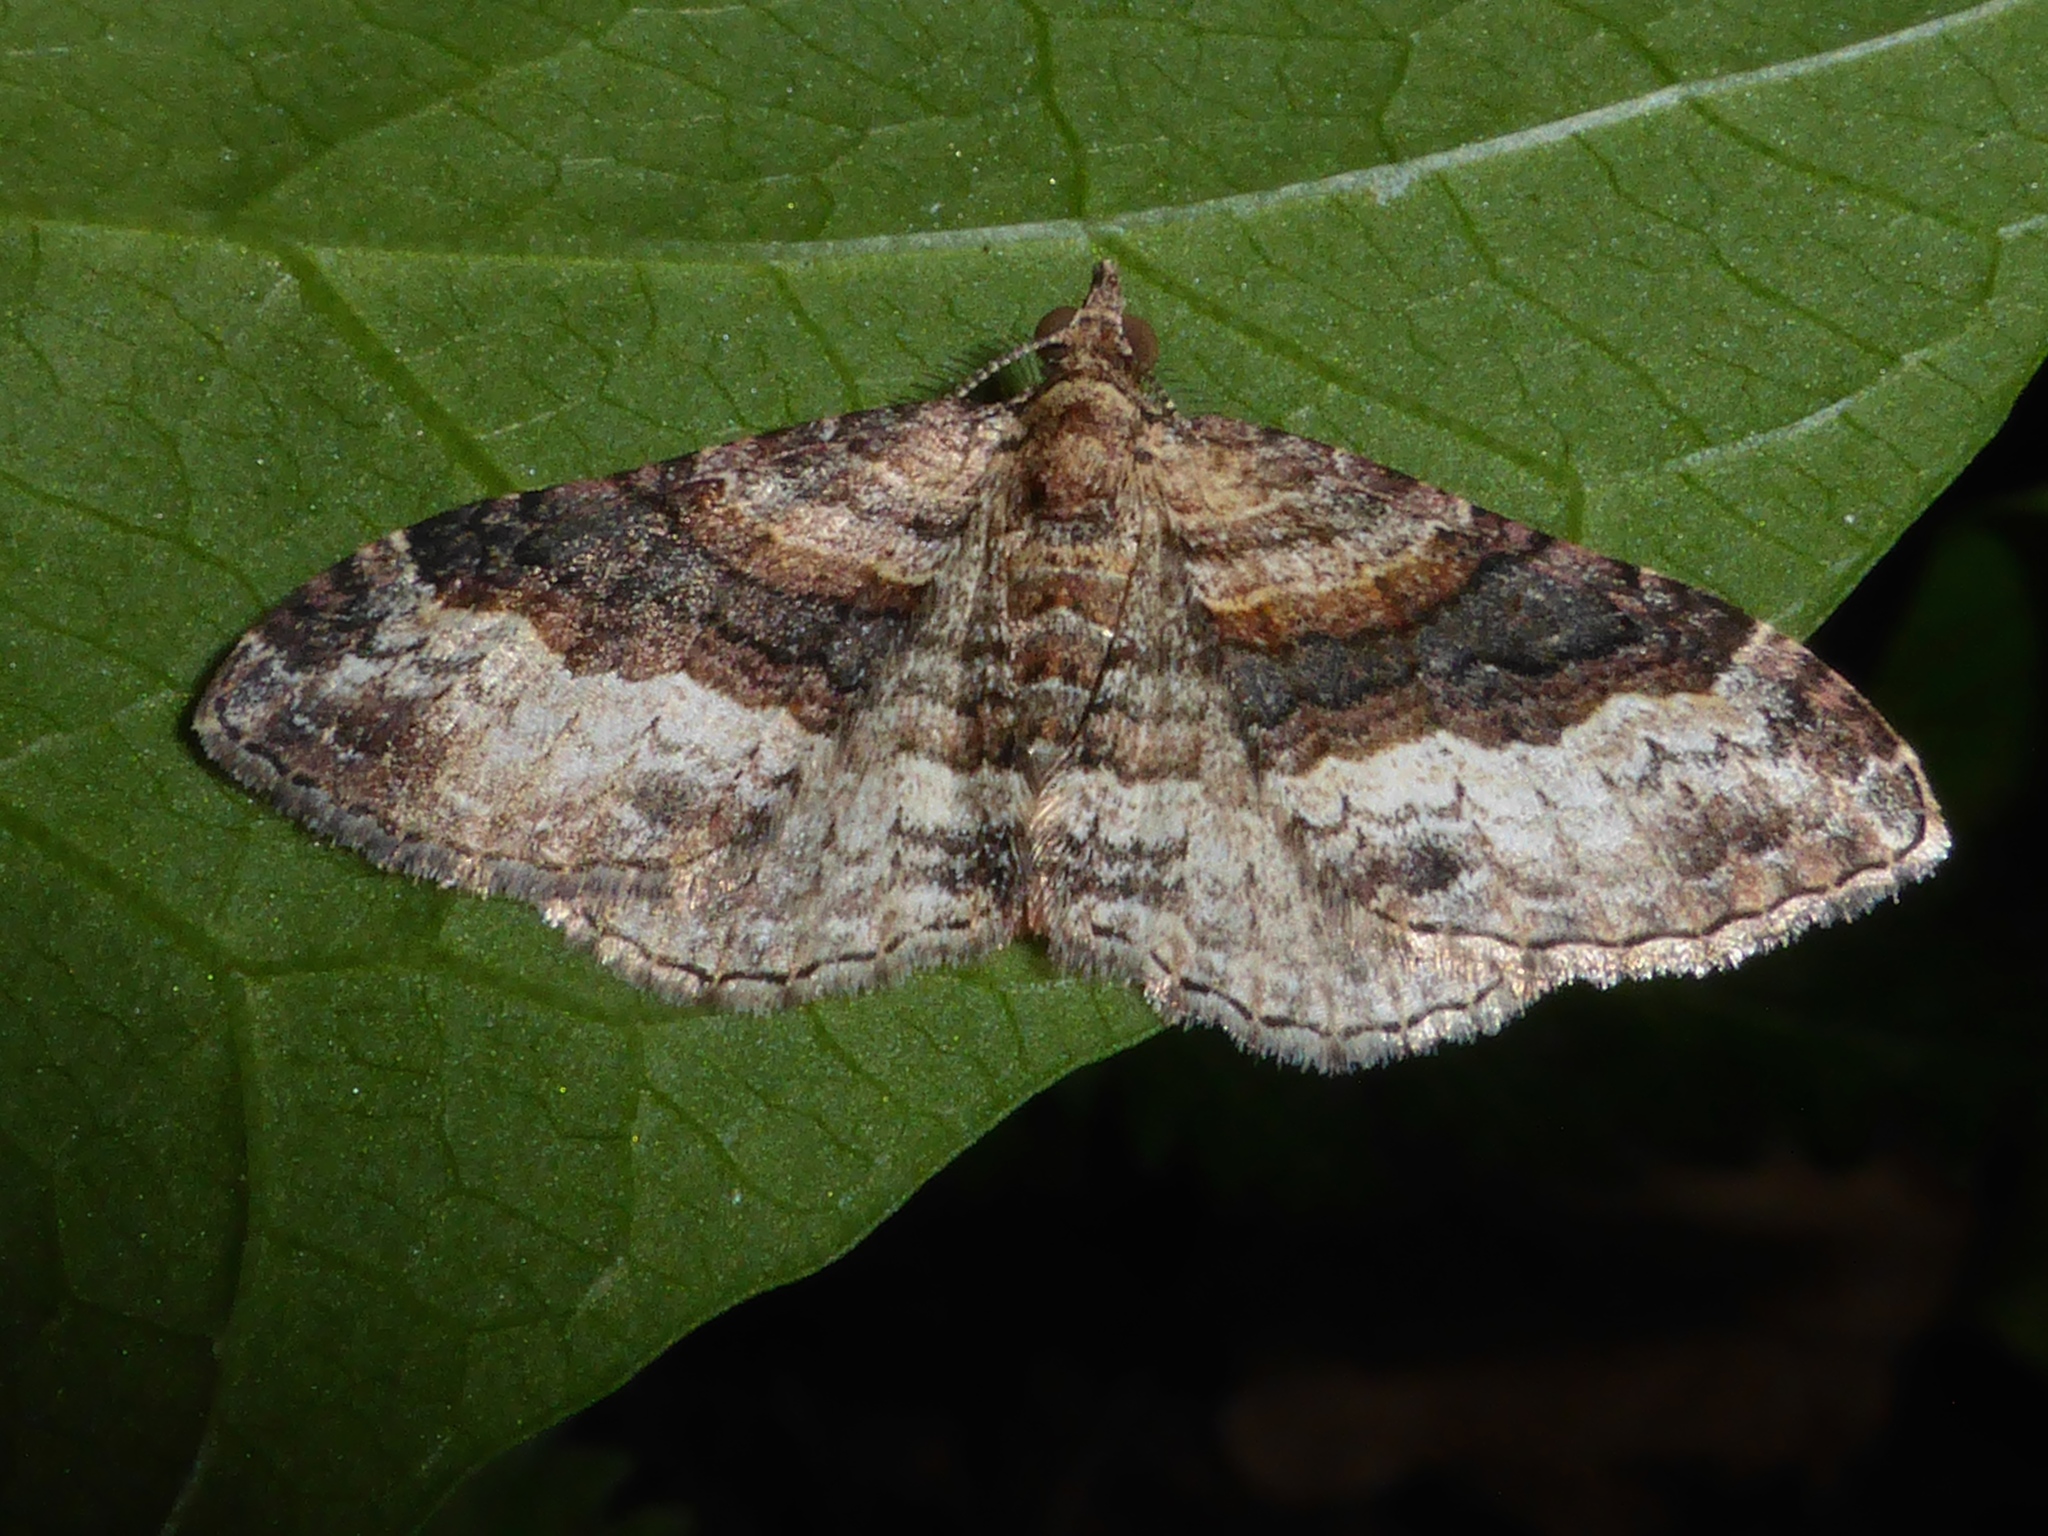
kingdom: Animalia
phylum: Arthropoda
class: Insecta
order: Lepidoptera
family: Geometridae
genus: Epyaxa
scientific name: Epyaxa lucidata
